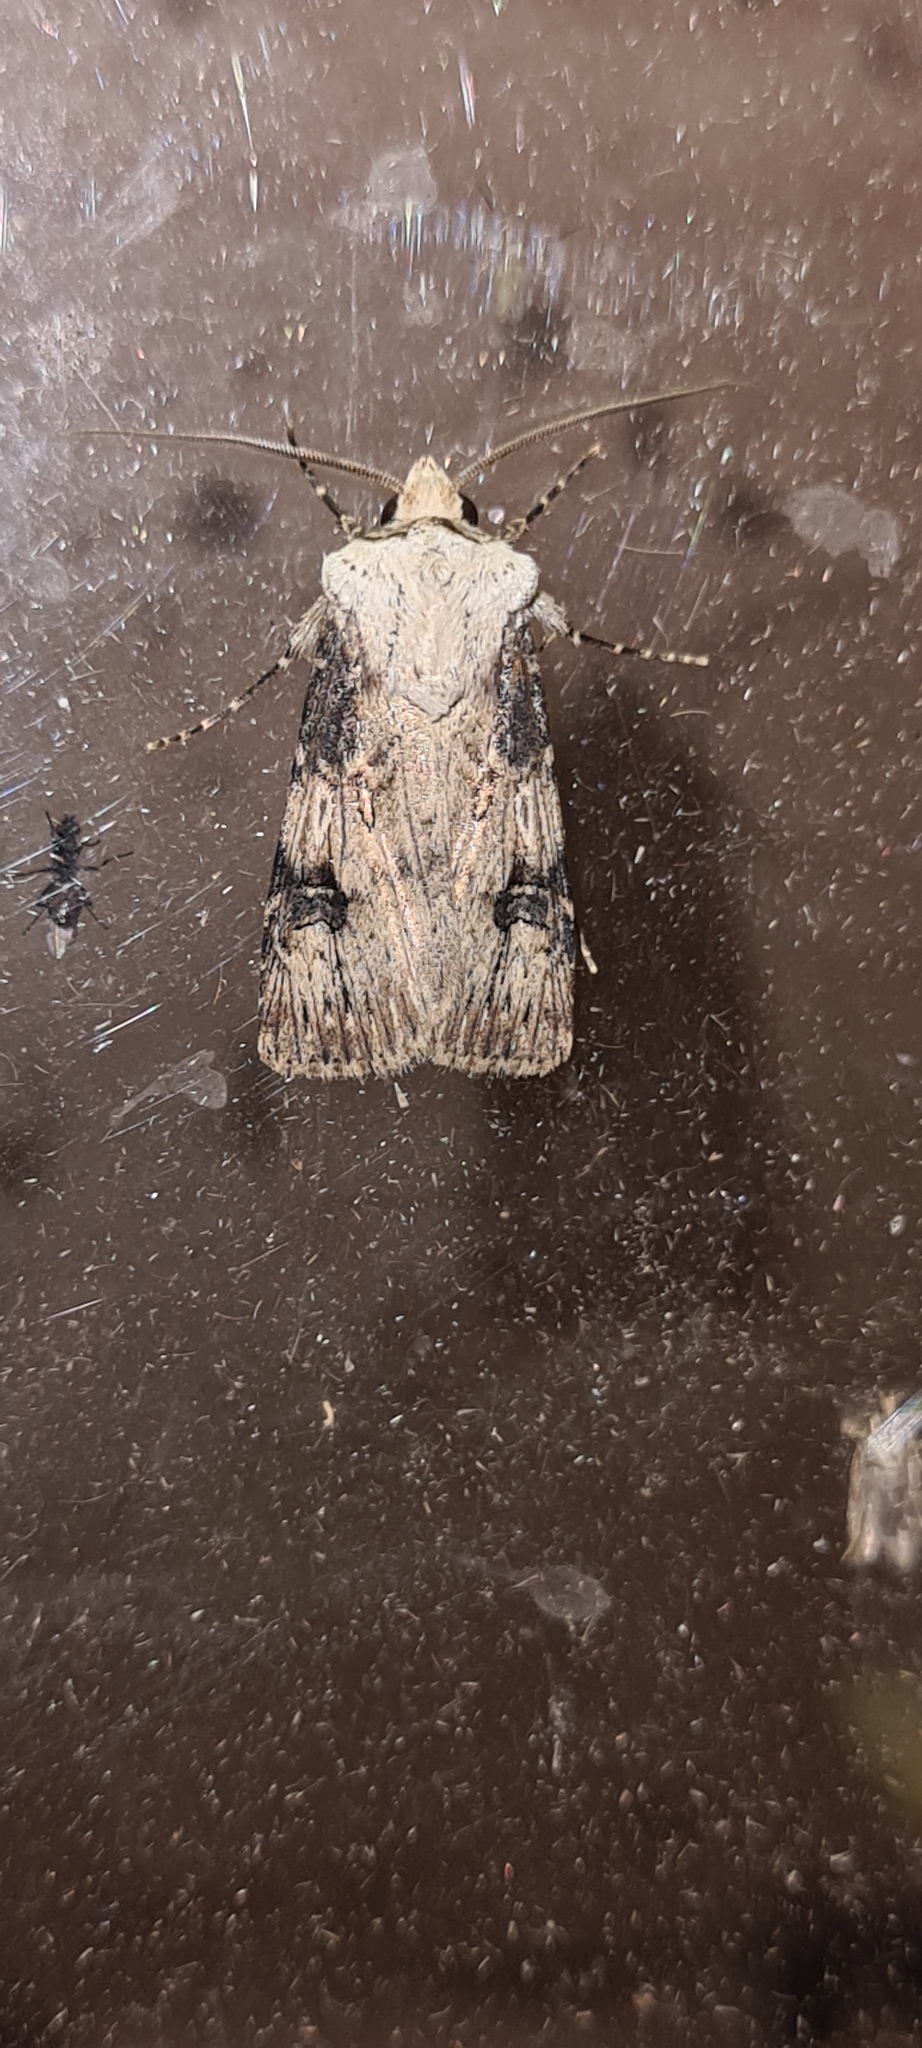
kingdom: Animalia
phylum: Arthropoda
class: Insecta
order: Lepidoptera
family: Noctuidae
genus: Agrotis
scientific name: Agrotis puta
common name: Shuttle-shaped dart
